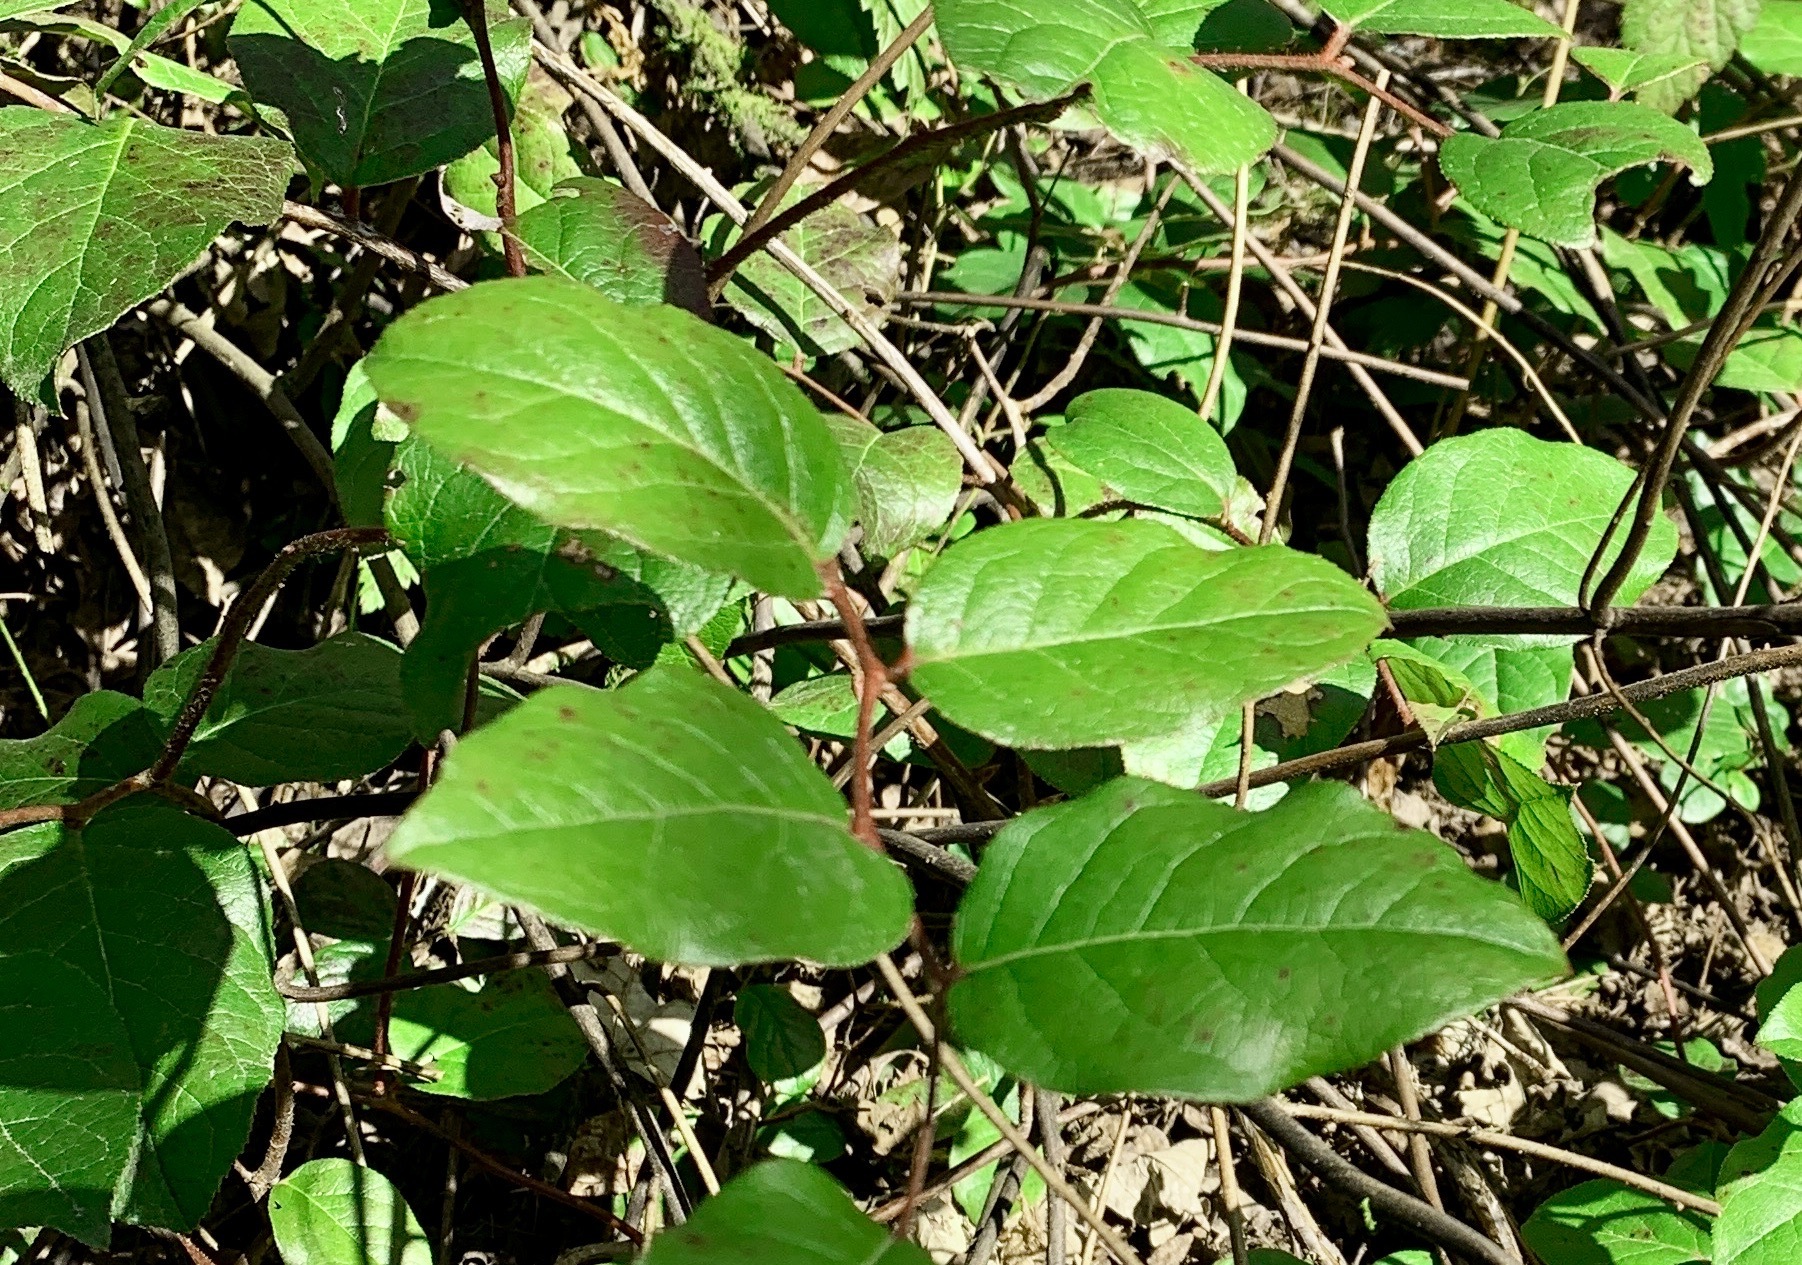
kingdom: Plantae
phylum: Tracheophyta
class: Magnoliopsida
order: Ericales
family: Ericaceae
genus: Gaultheria
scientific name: Gaultheria shallon
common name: Shallon
